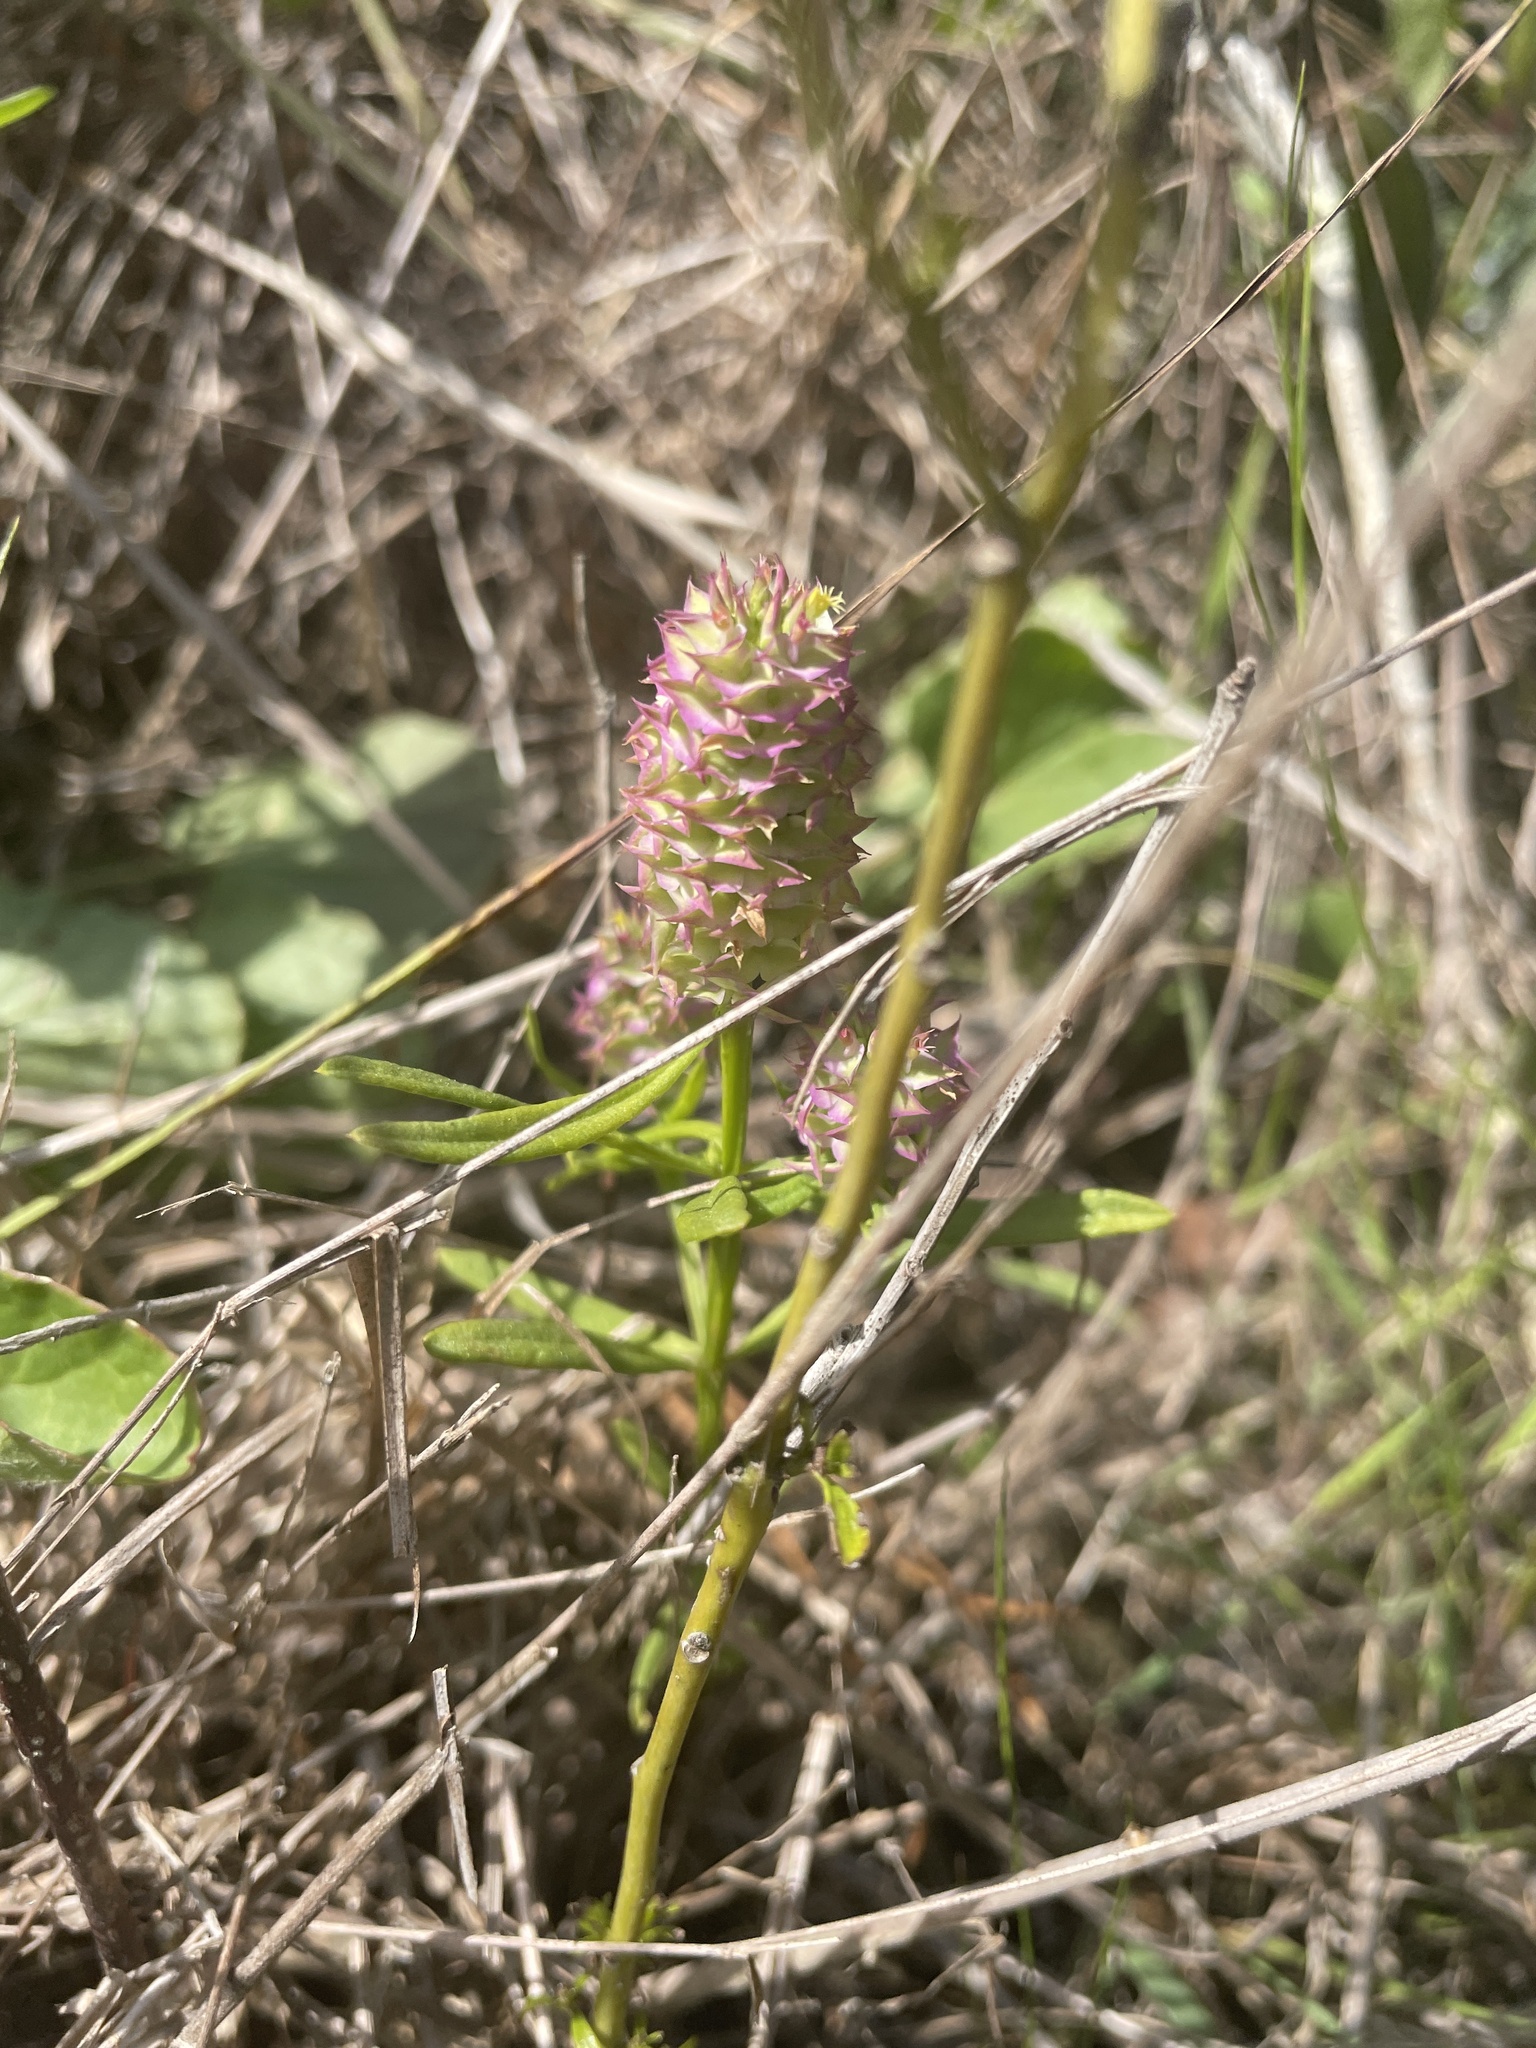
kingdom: Plantae
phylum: Tracheophyta
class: Magnoliopsida
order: Fabales
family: Polygalaceae
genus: Polygala
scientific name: Polygala cruciata
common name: Drumheads
